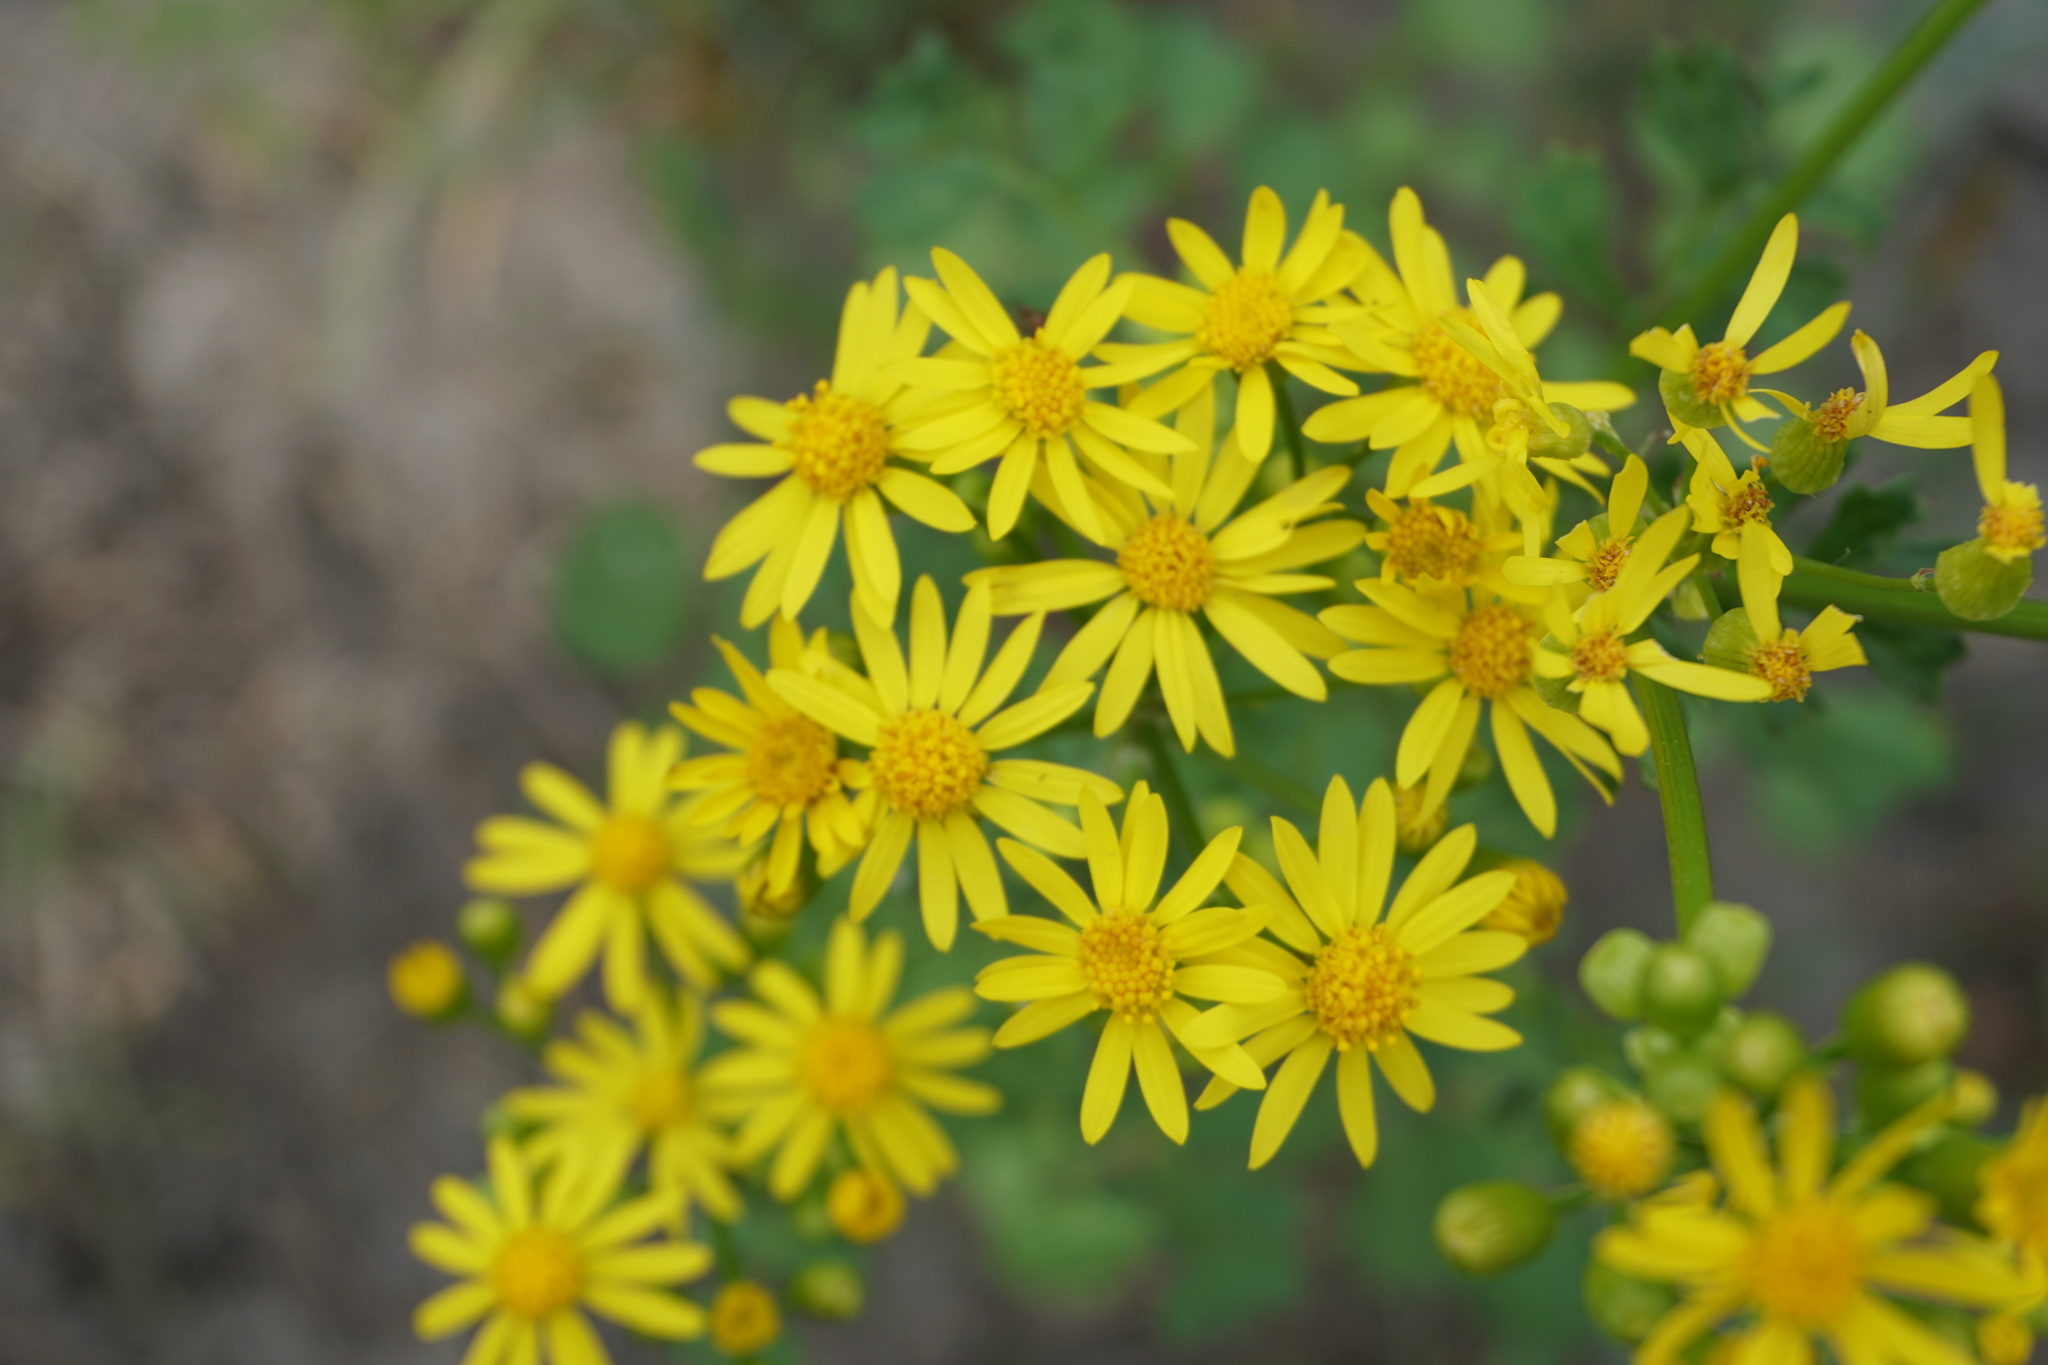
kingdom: Plantae
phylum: Tracheophyta
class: Magnoliopsida
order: Asterales
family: Asteraceae
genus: Packera
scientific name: Packera glabella
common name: Butterweed
